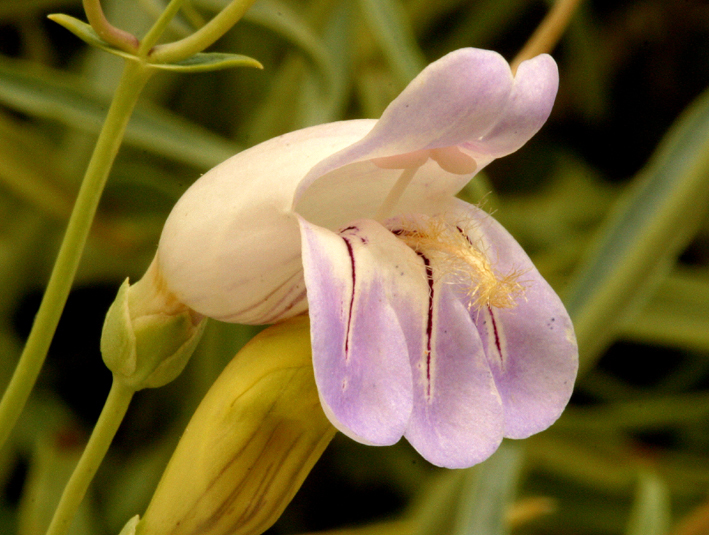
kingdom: Plantae
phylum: Tracheophyta
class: Magnoliopsida
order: Lamiales
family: Plantaginaceae
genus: Penstemon
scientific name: Penstemon fruticiformis
